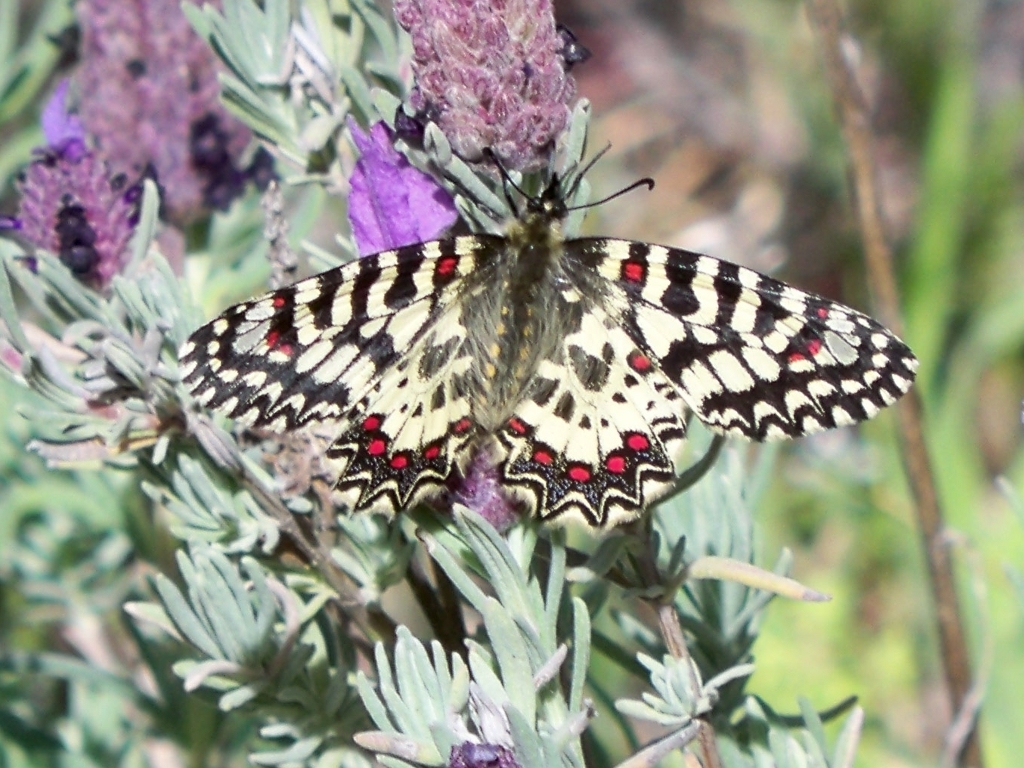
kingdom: Animalia
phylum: Arthropoda
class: Insecta
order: Lepidoptera
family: Papilionidae
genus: Zerynthia
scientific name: Zerynthia rumina
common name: Spanish festoon
